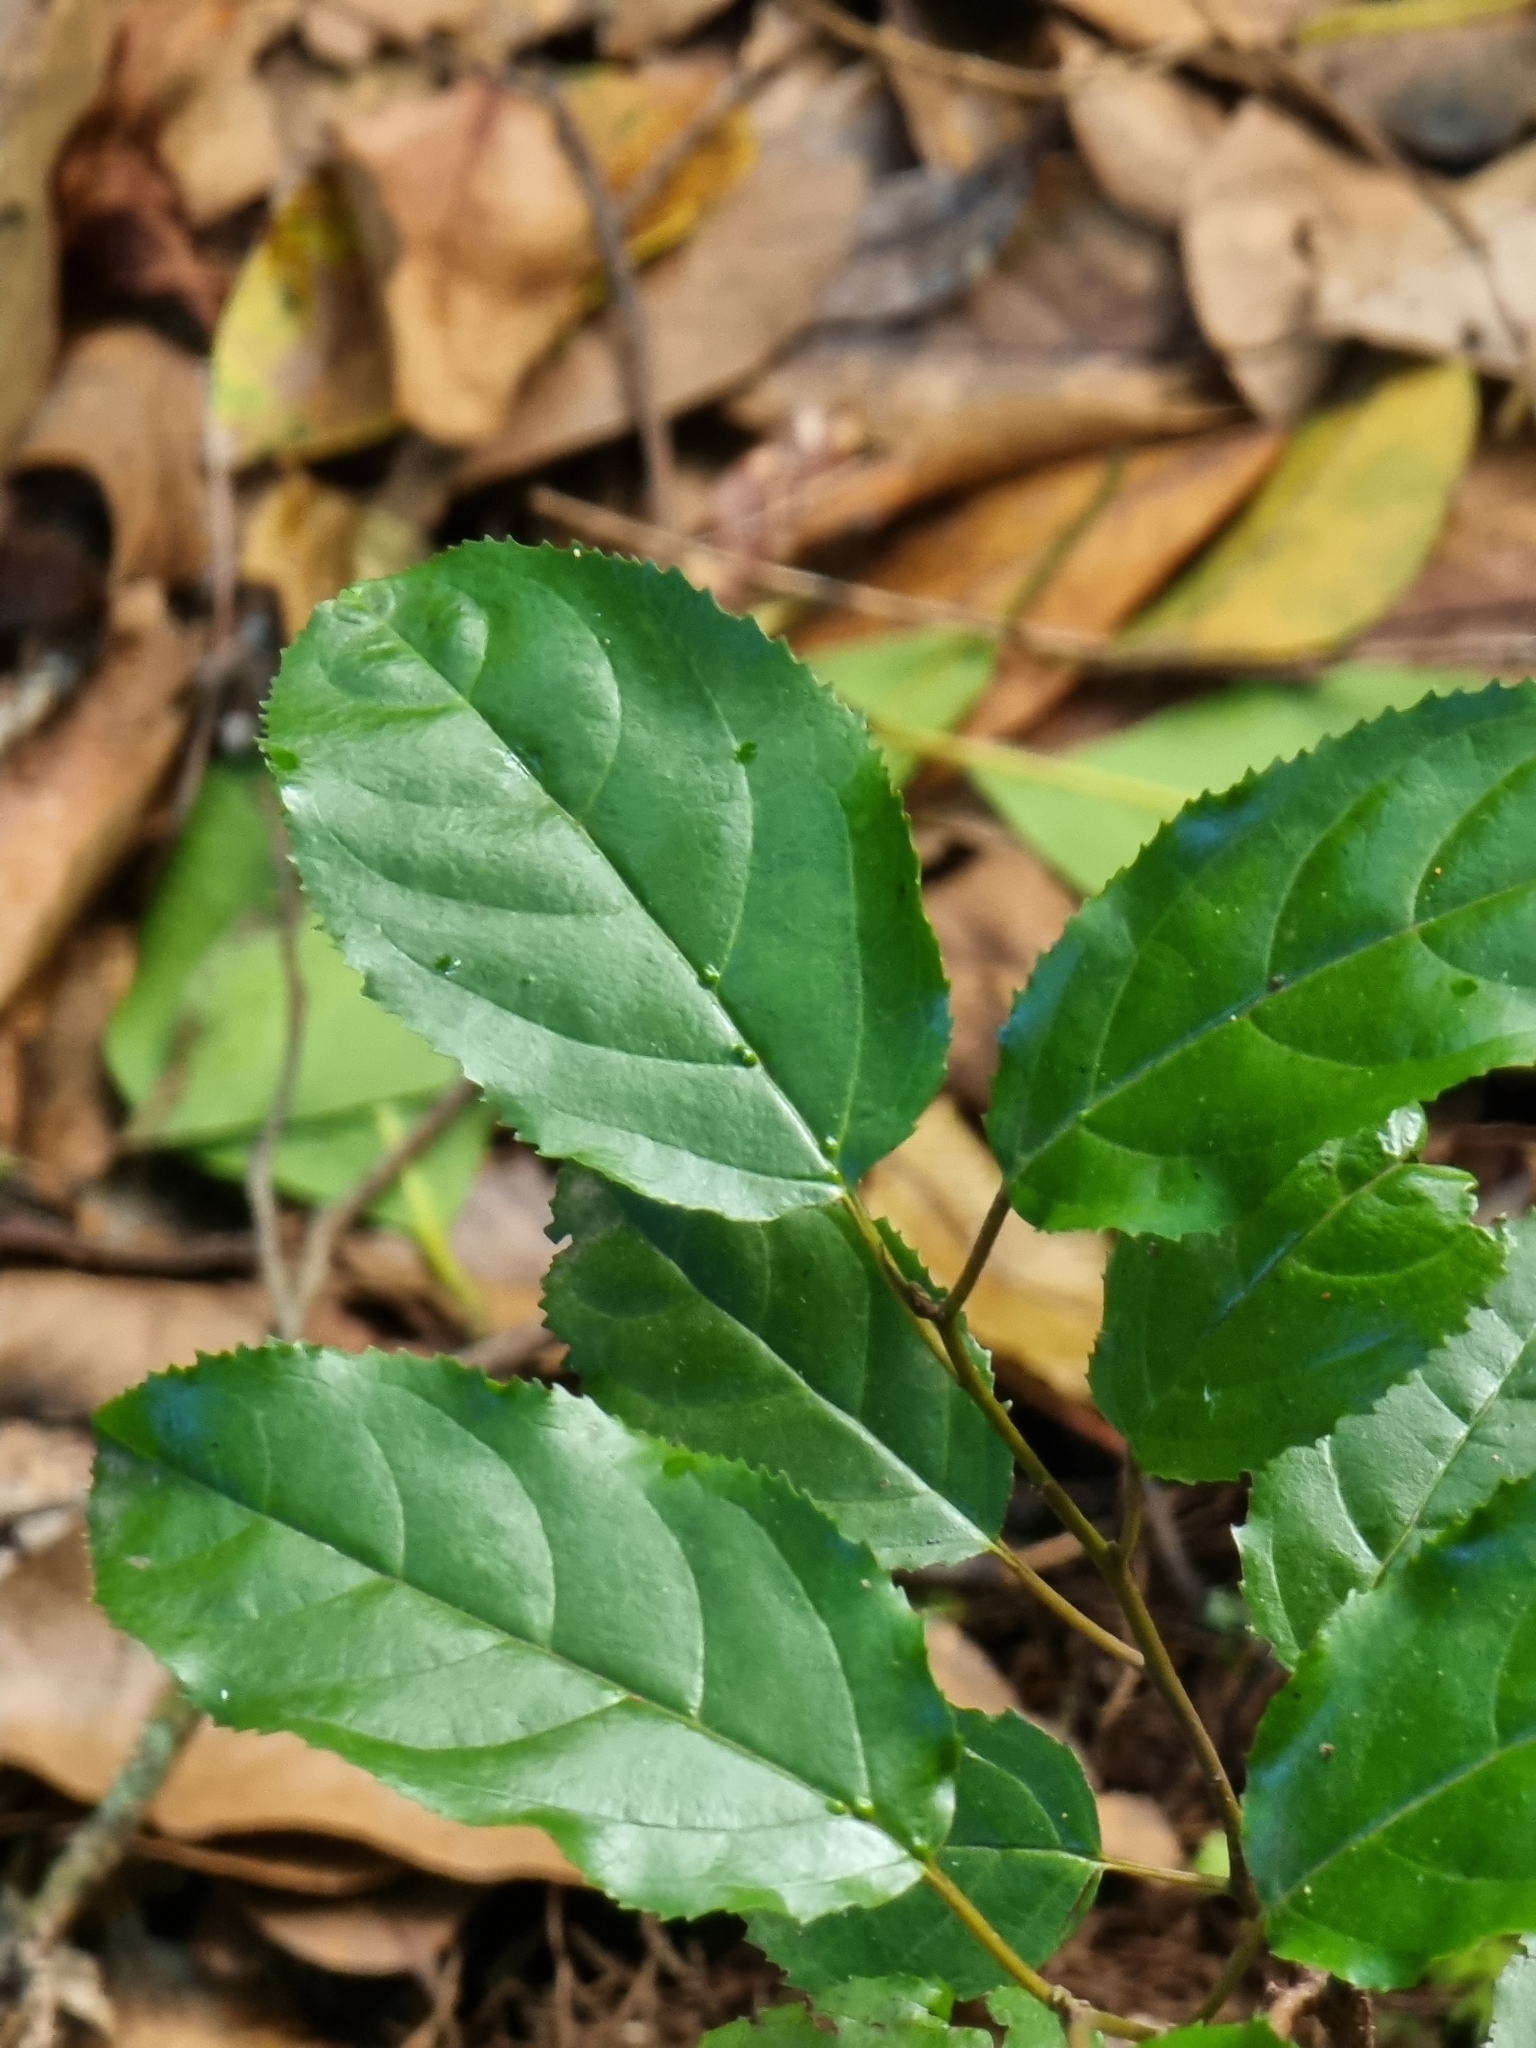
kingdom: Plantae
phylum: Tracheophyta
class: Magnoliopsida
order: Rosales
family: Rhamnaceae
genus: Rhamnus
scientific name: Rhamnus glandulosa
